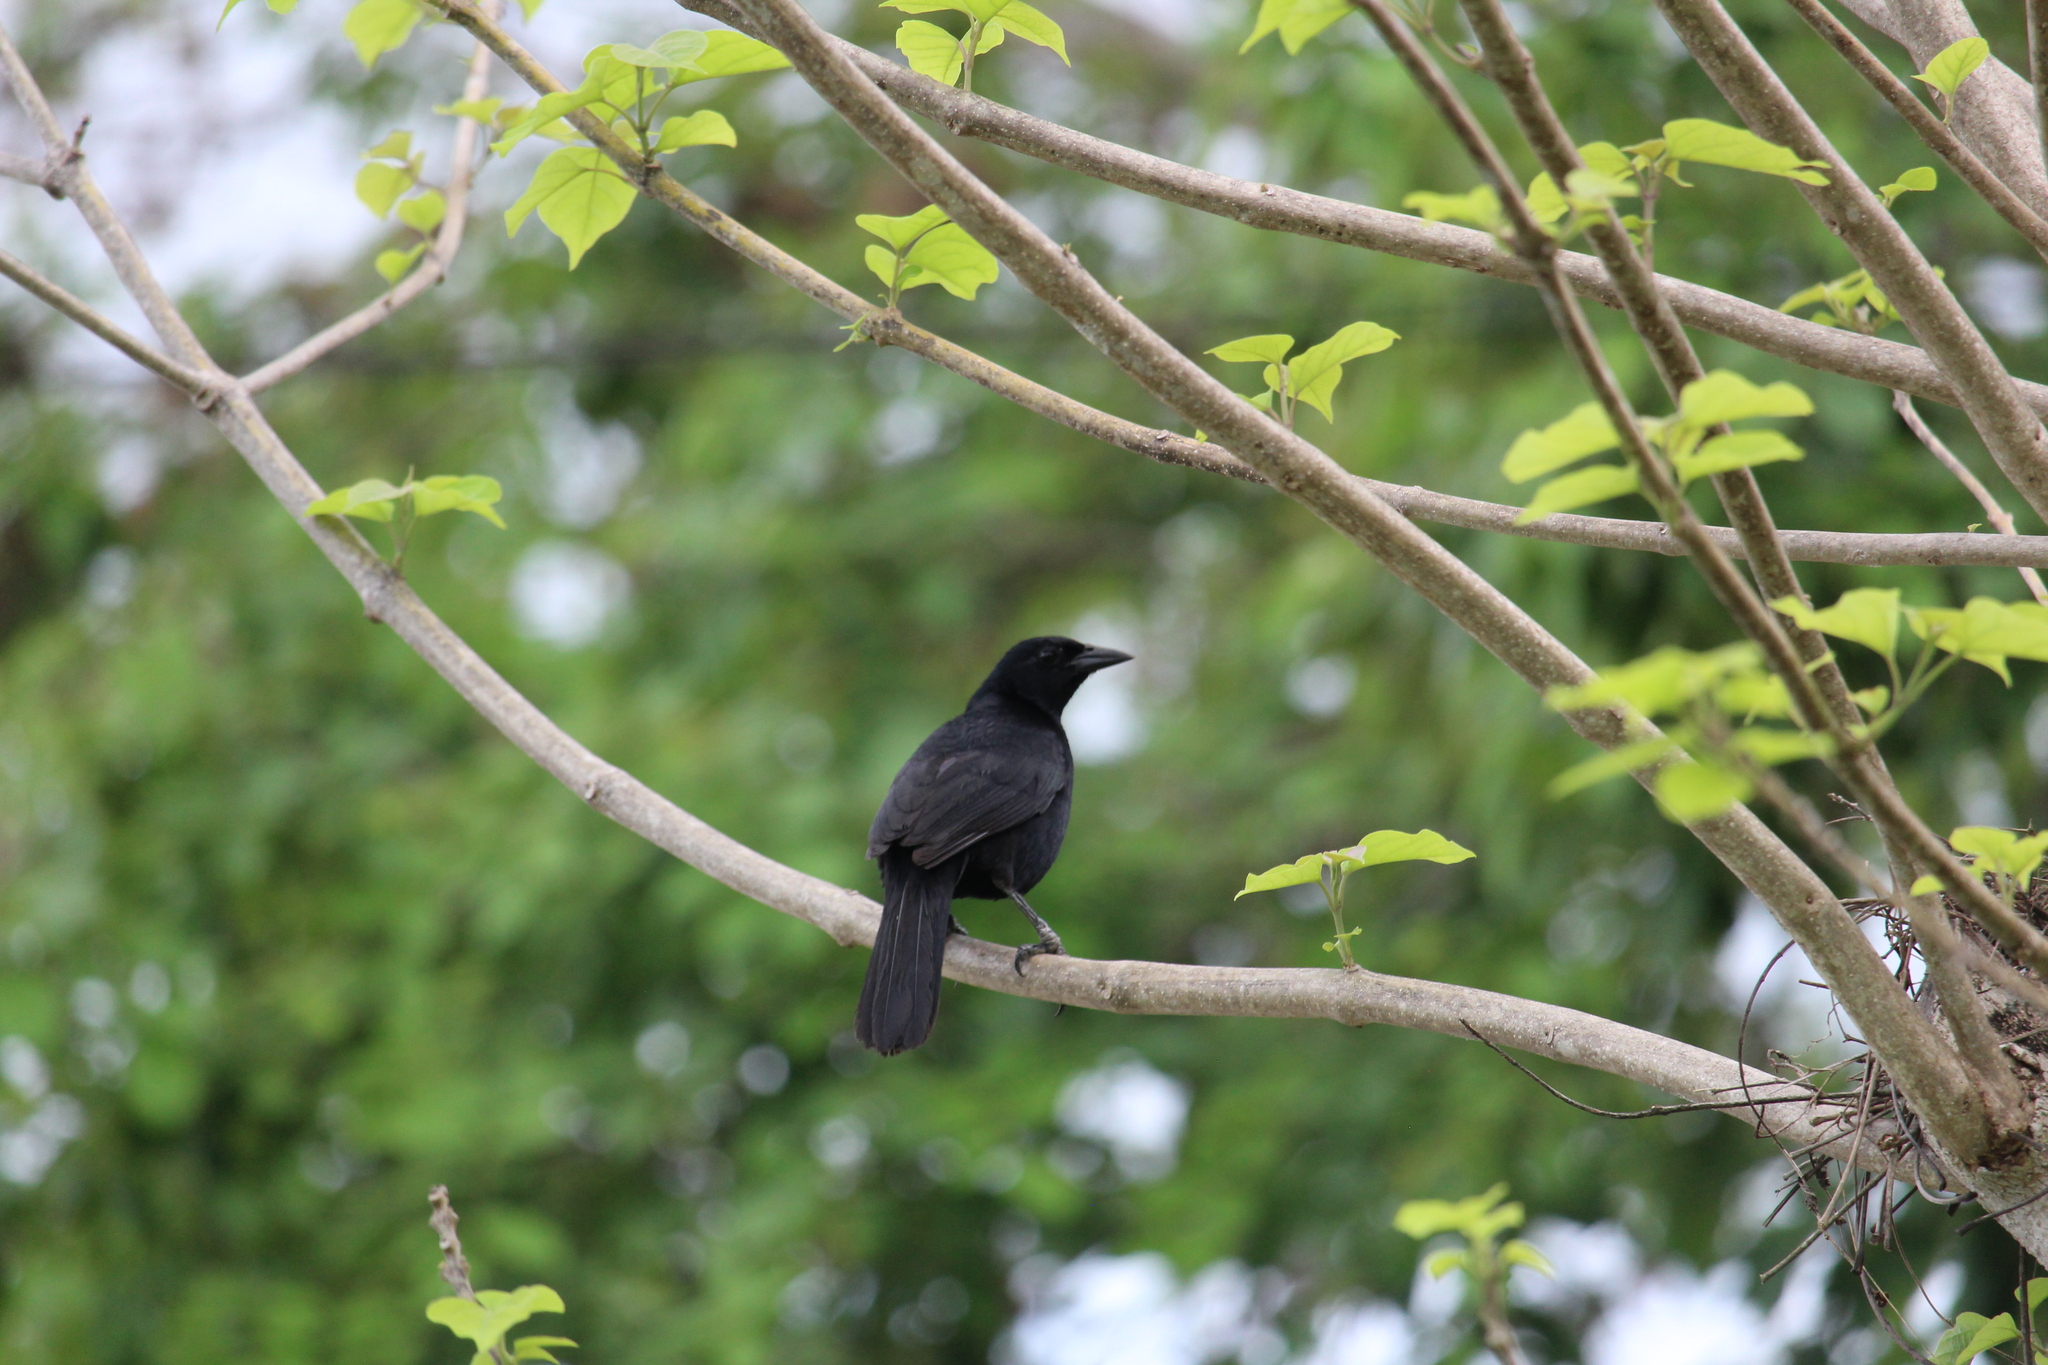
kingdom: Animalia
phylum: Chordata
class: Aves
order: Passeriformes
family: Icteridae
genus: Dives
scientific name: Dives dives
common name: Melodious blackbird
